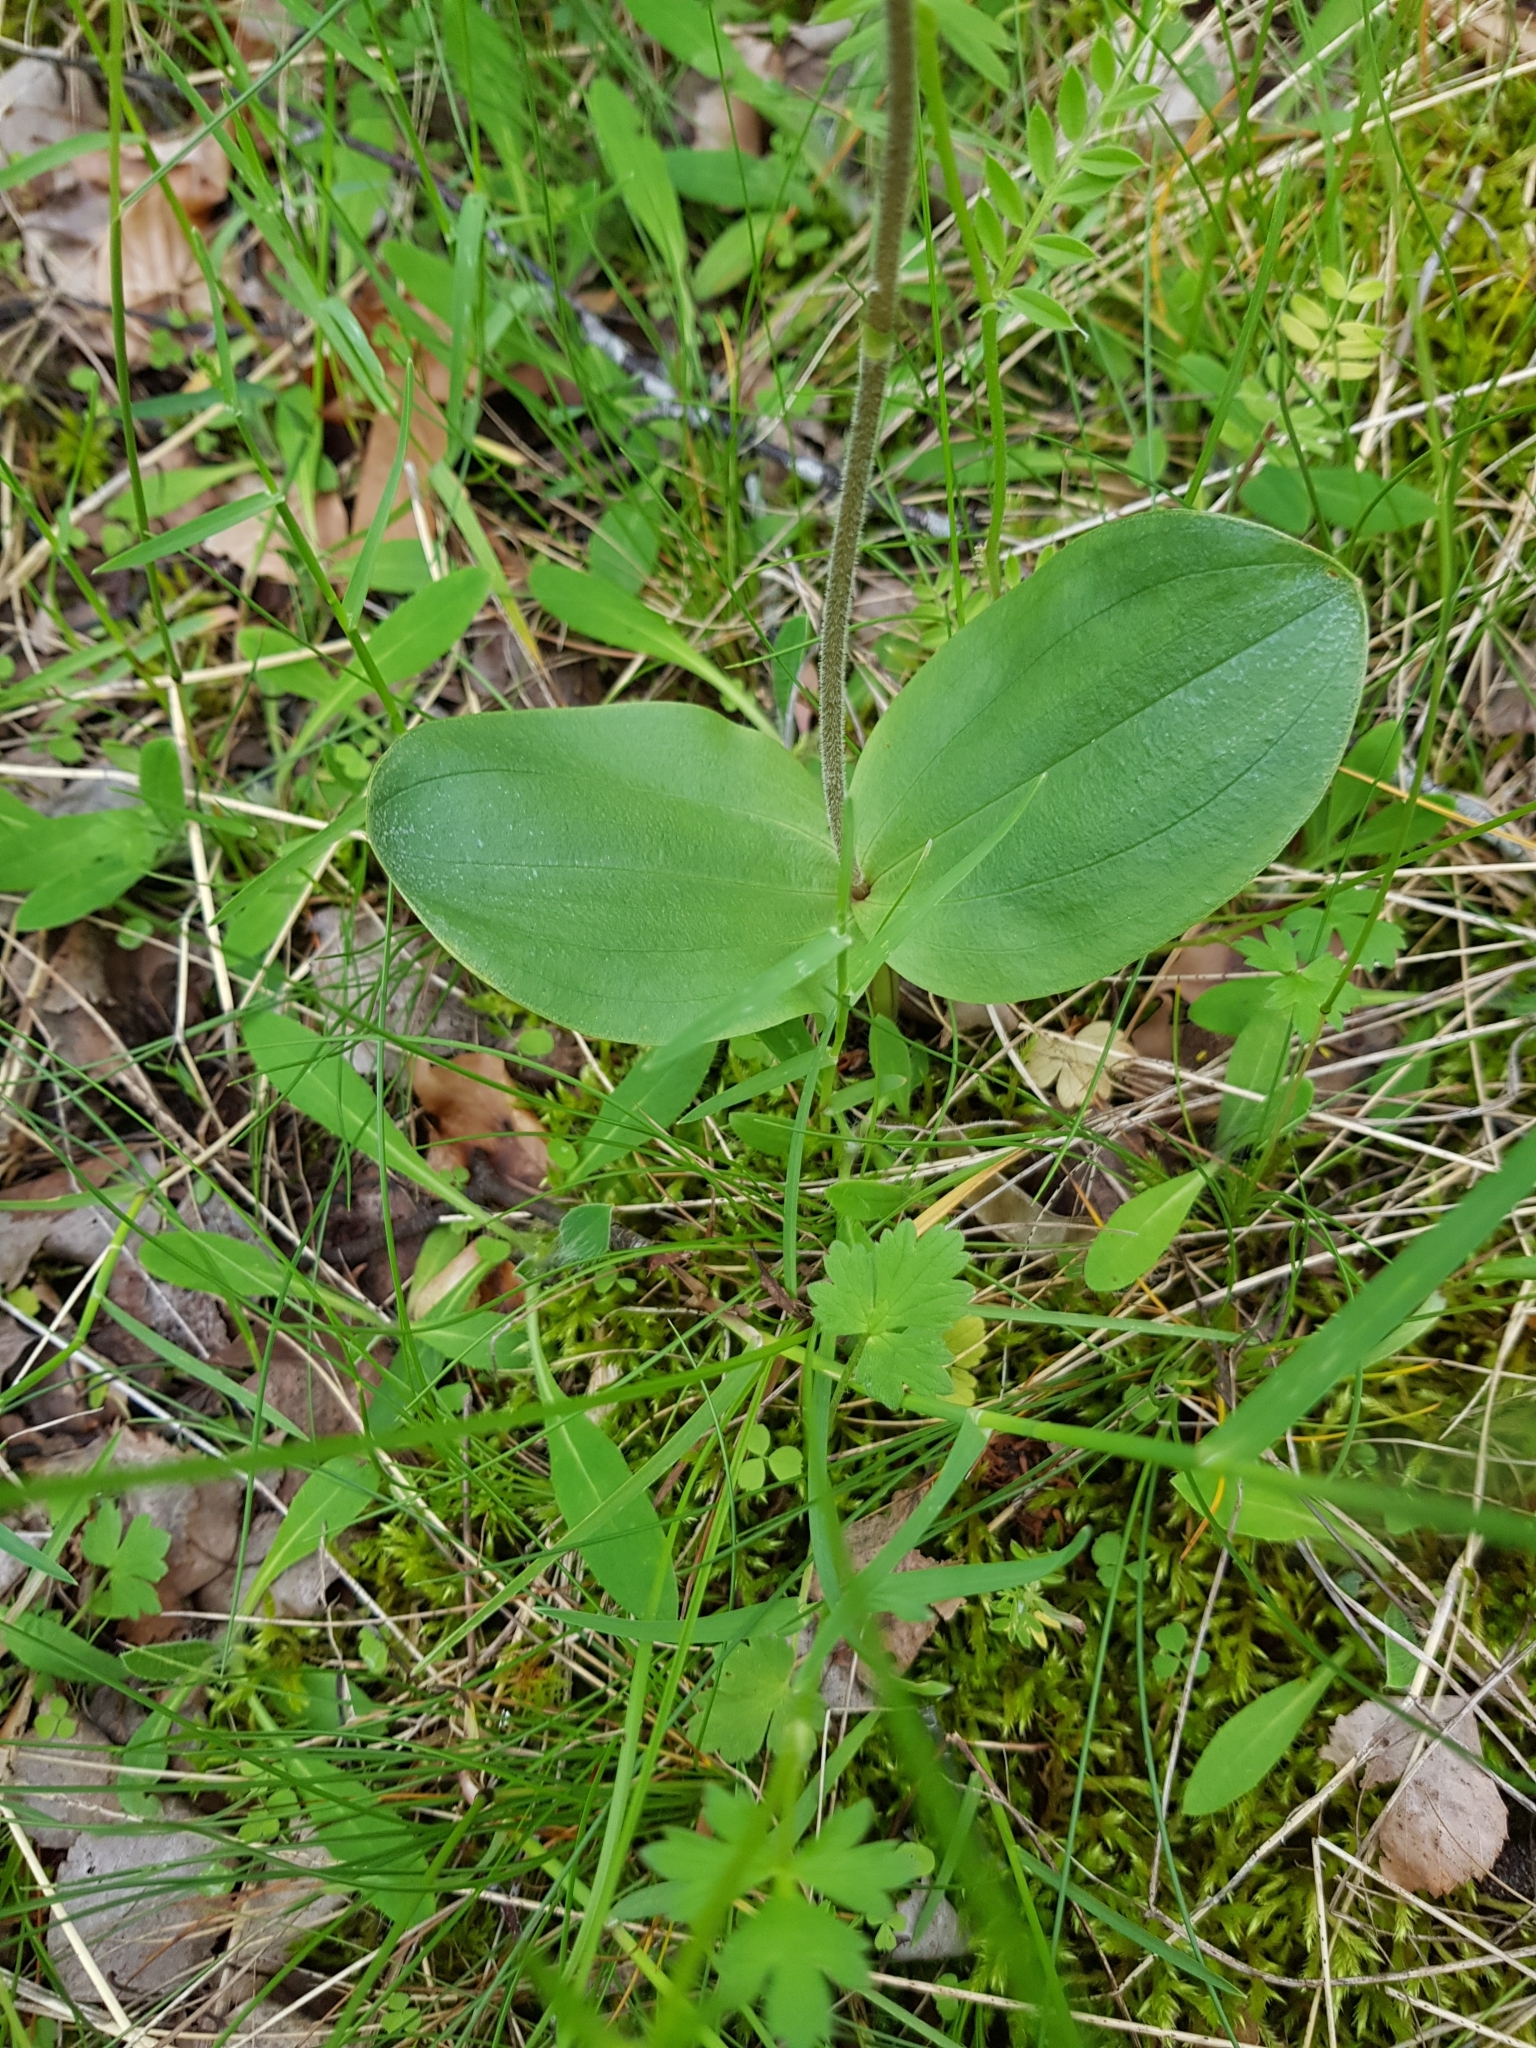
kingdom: Plantae
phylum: Tracheophyta
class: Liliopsida
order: Asparagales
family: Orchidaceae
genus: Neottia
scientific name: Neottia ovata
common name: Common twayblade
